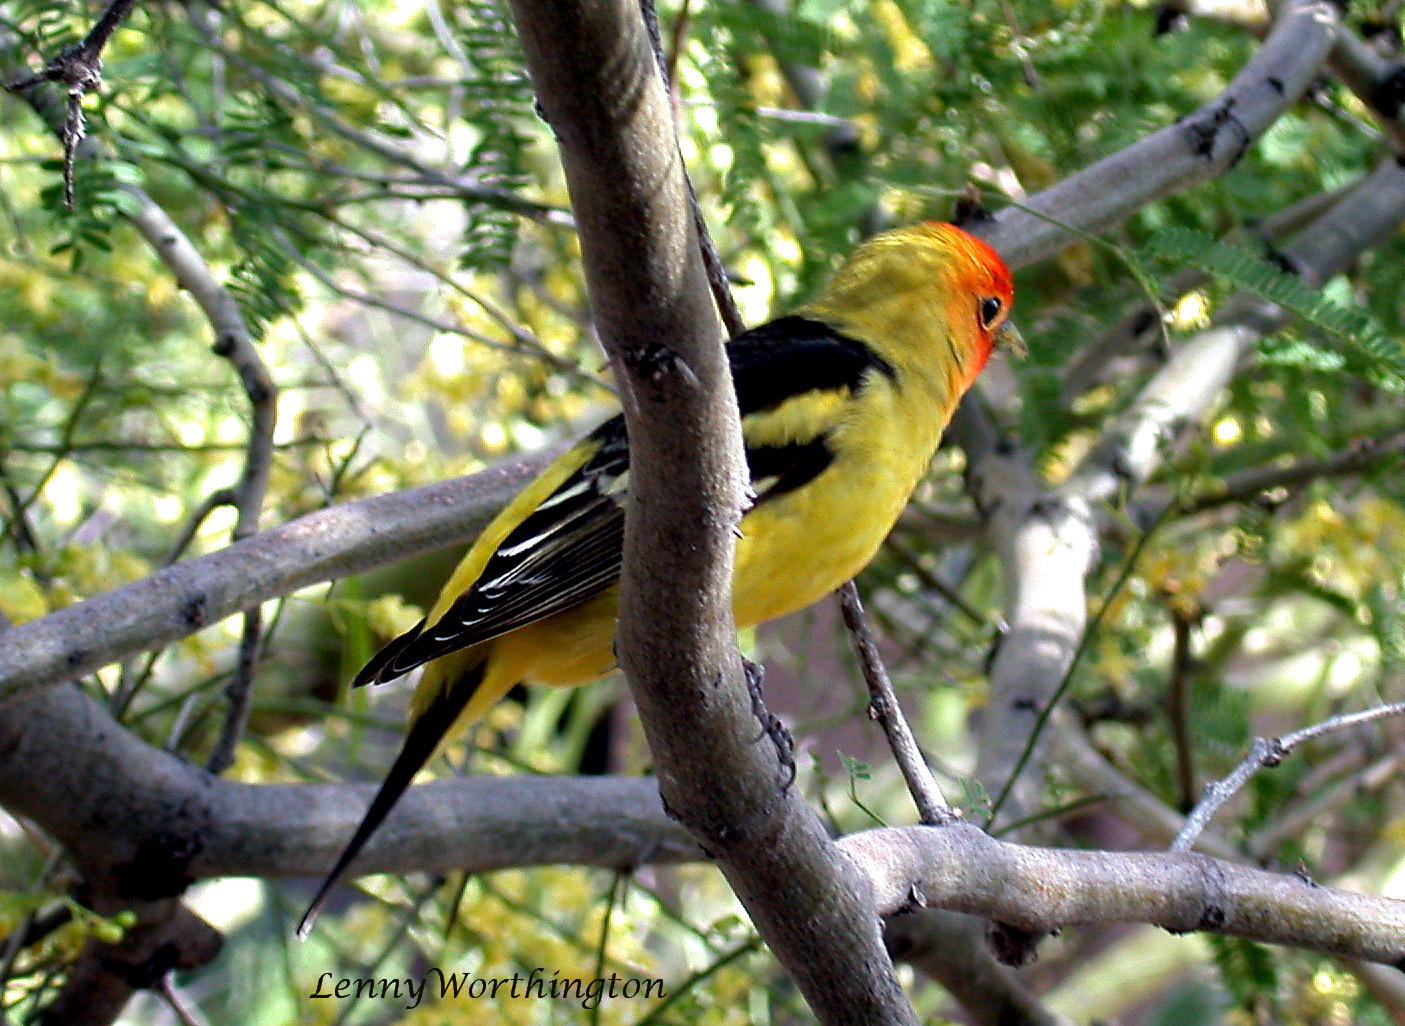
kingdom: Animalia
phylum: Chordata
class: Aves
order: Passeriformes
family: Cardinalidae
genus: Piranga
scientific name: Piranga ludoviciana
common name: Western tanager
